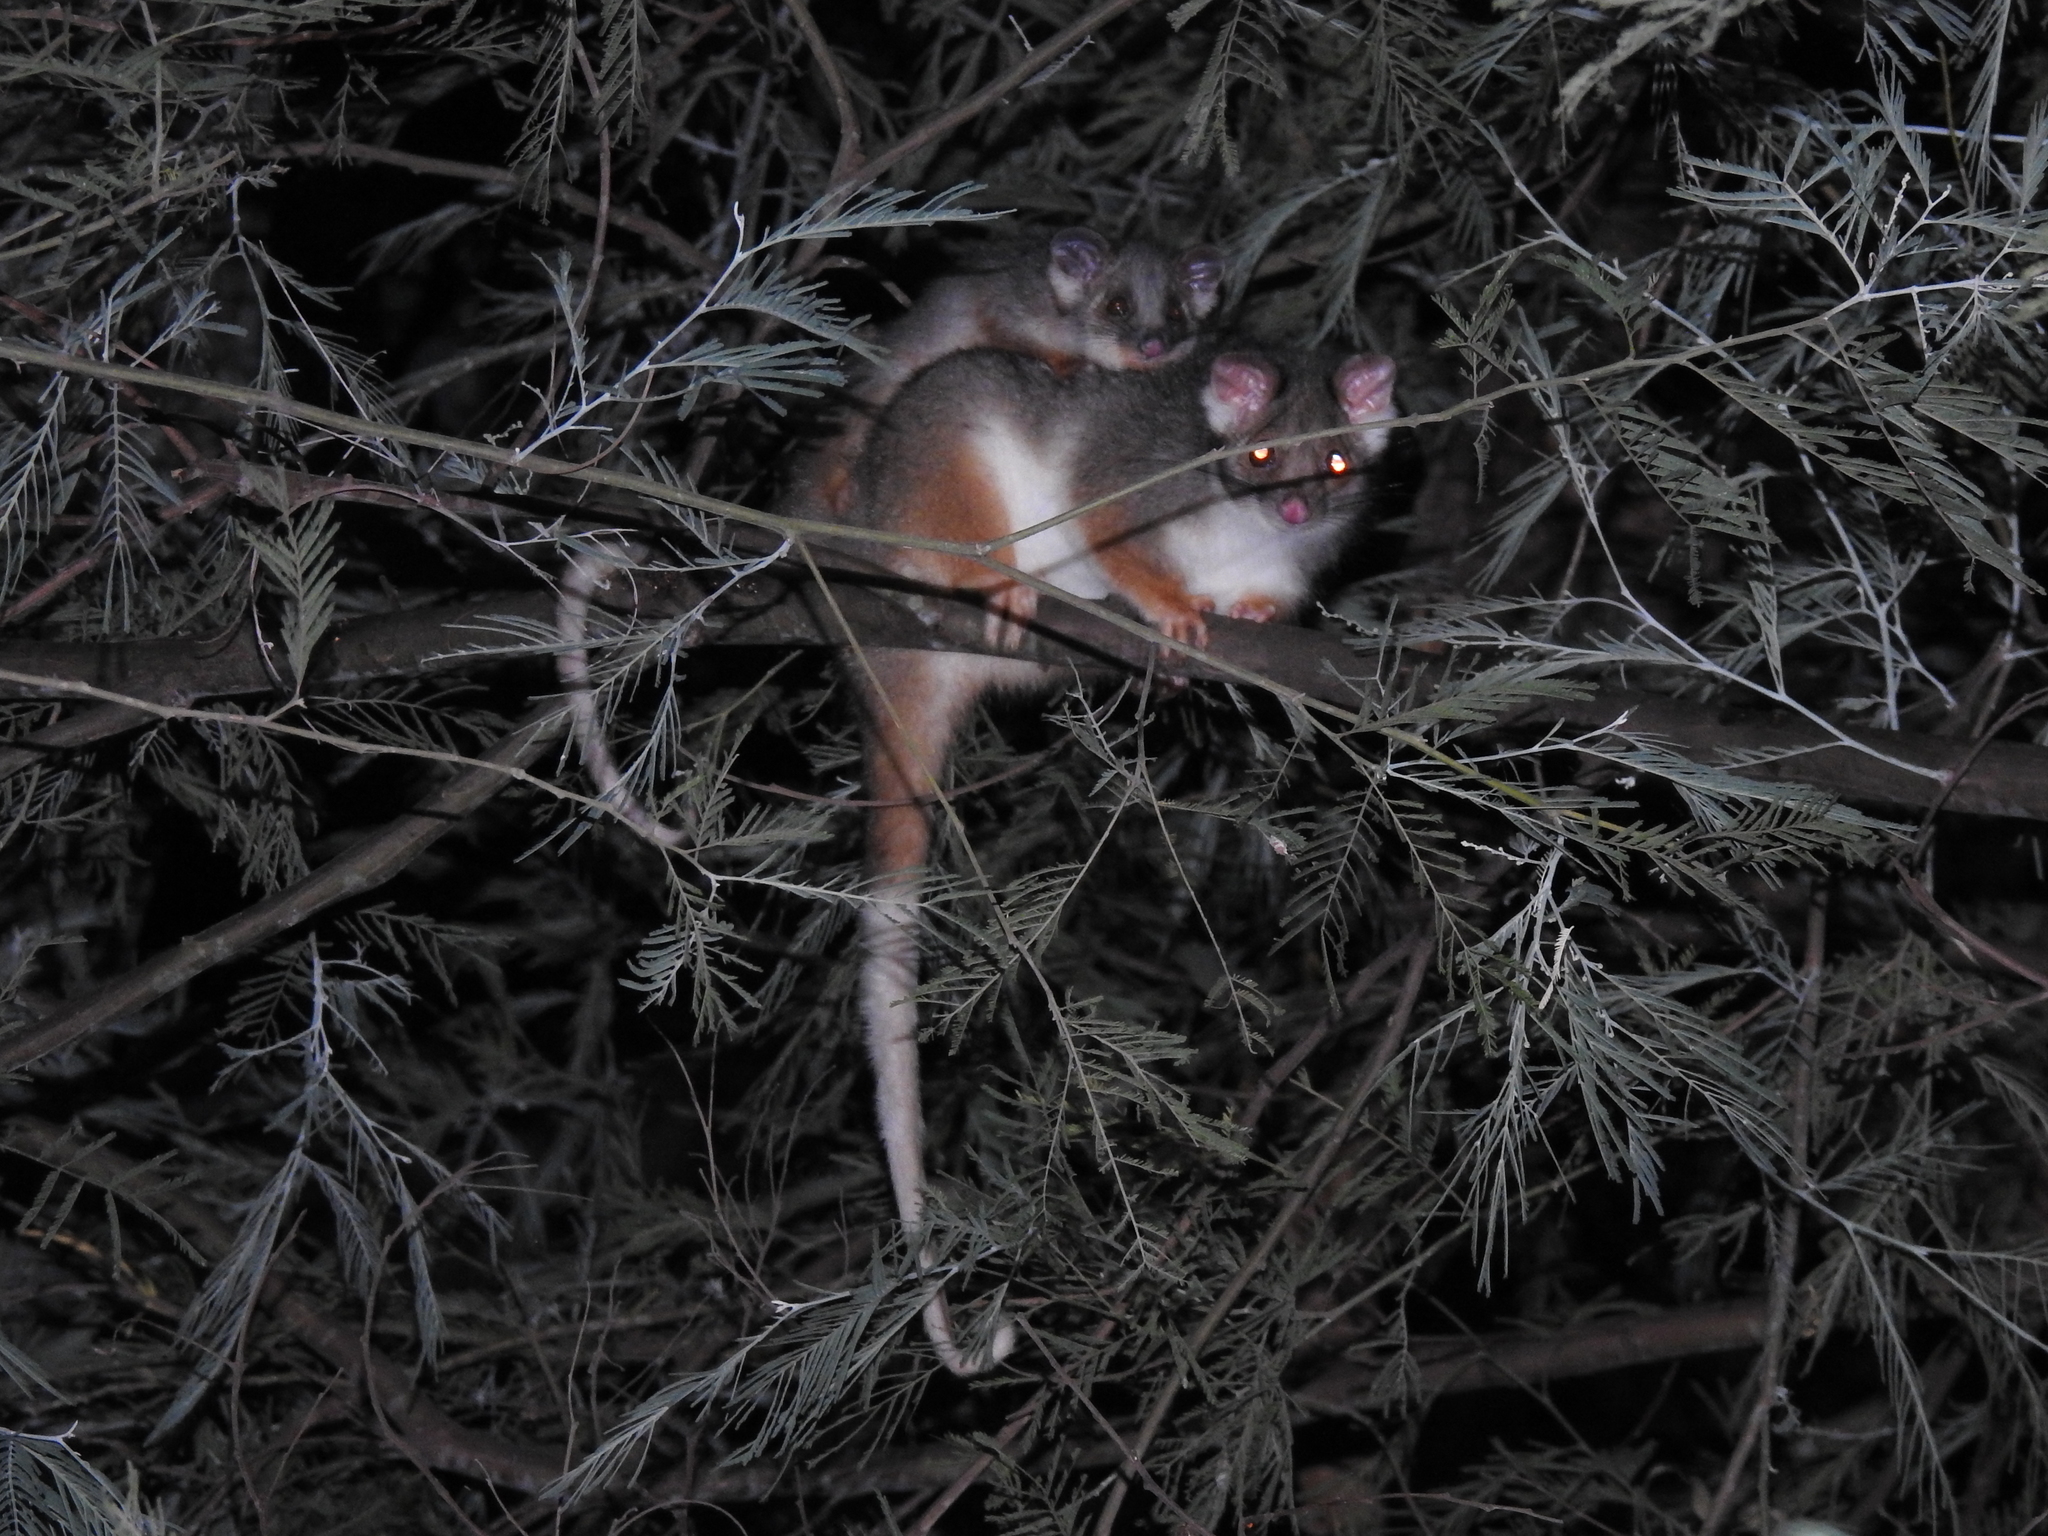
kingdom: Animalia
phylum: Chordata
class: Mammalia
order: Diprotodontia
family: Pseudocheiridae
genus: Pseudocheirus
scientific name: Pseudocheirus peregrinus
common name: Common ringtail possum
